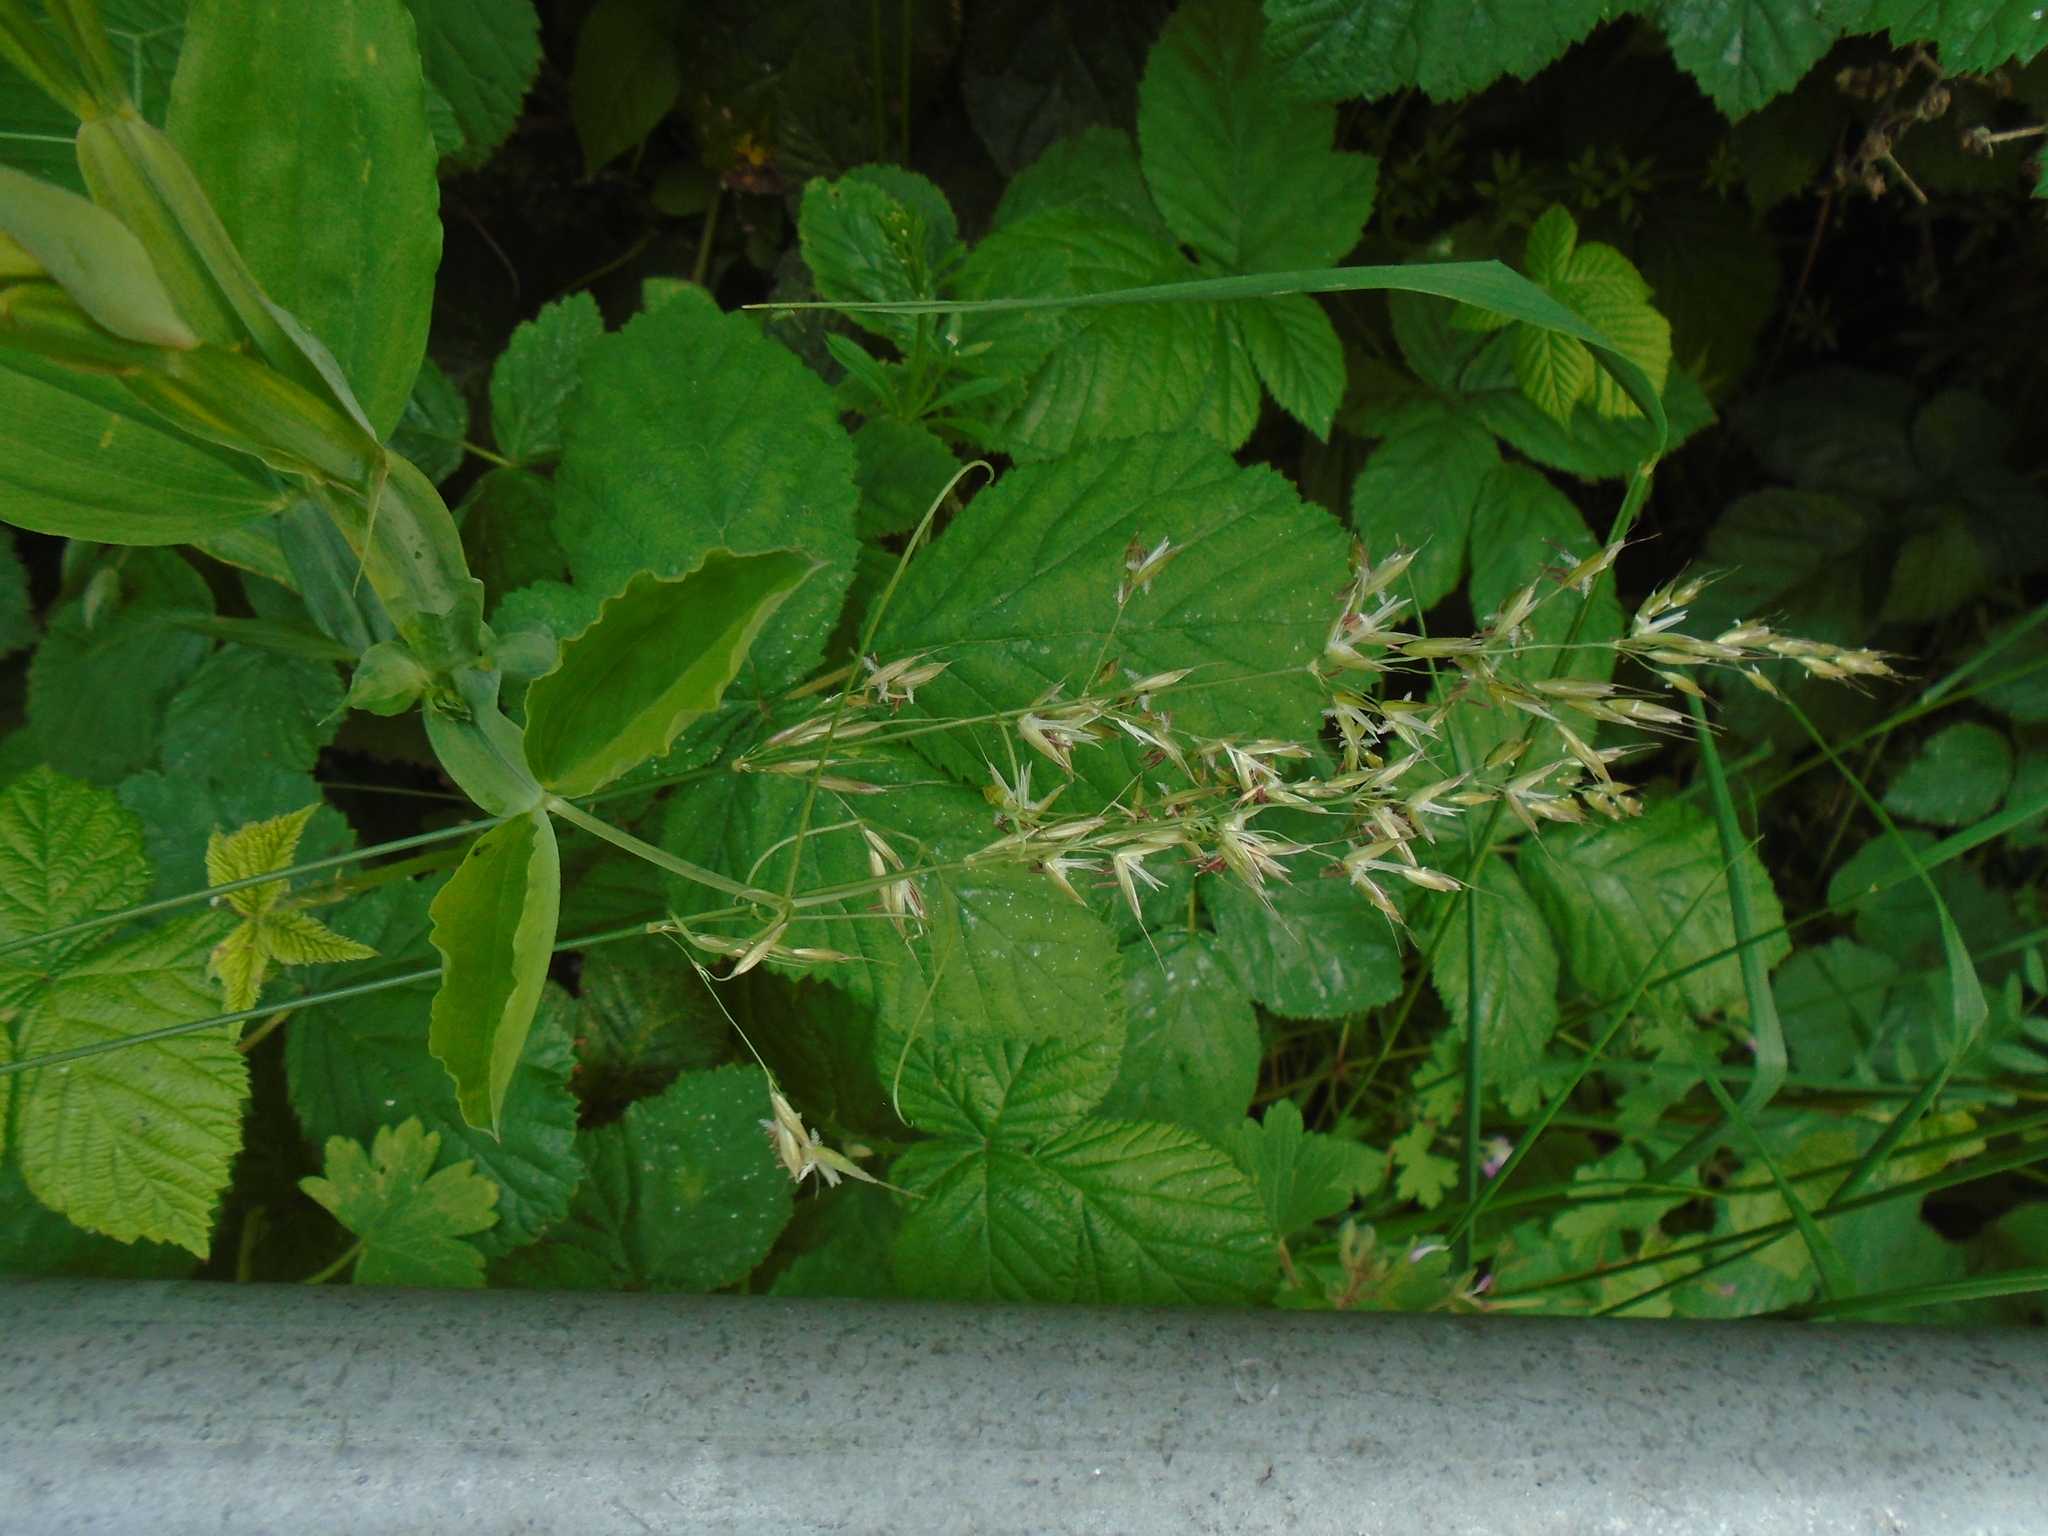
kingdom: Plantae
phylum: Tracheophyta
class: Liliopsida
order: Poales
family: Poaceae
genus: Arrhenatherum
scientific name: Arrhenatherum elatius
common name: Tall oatgrass
